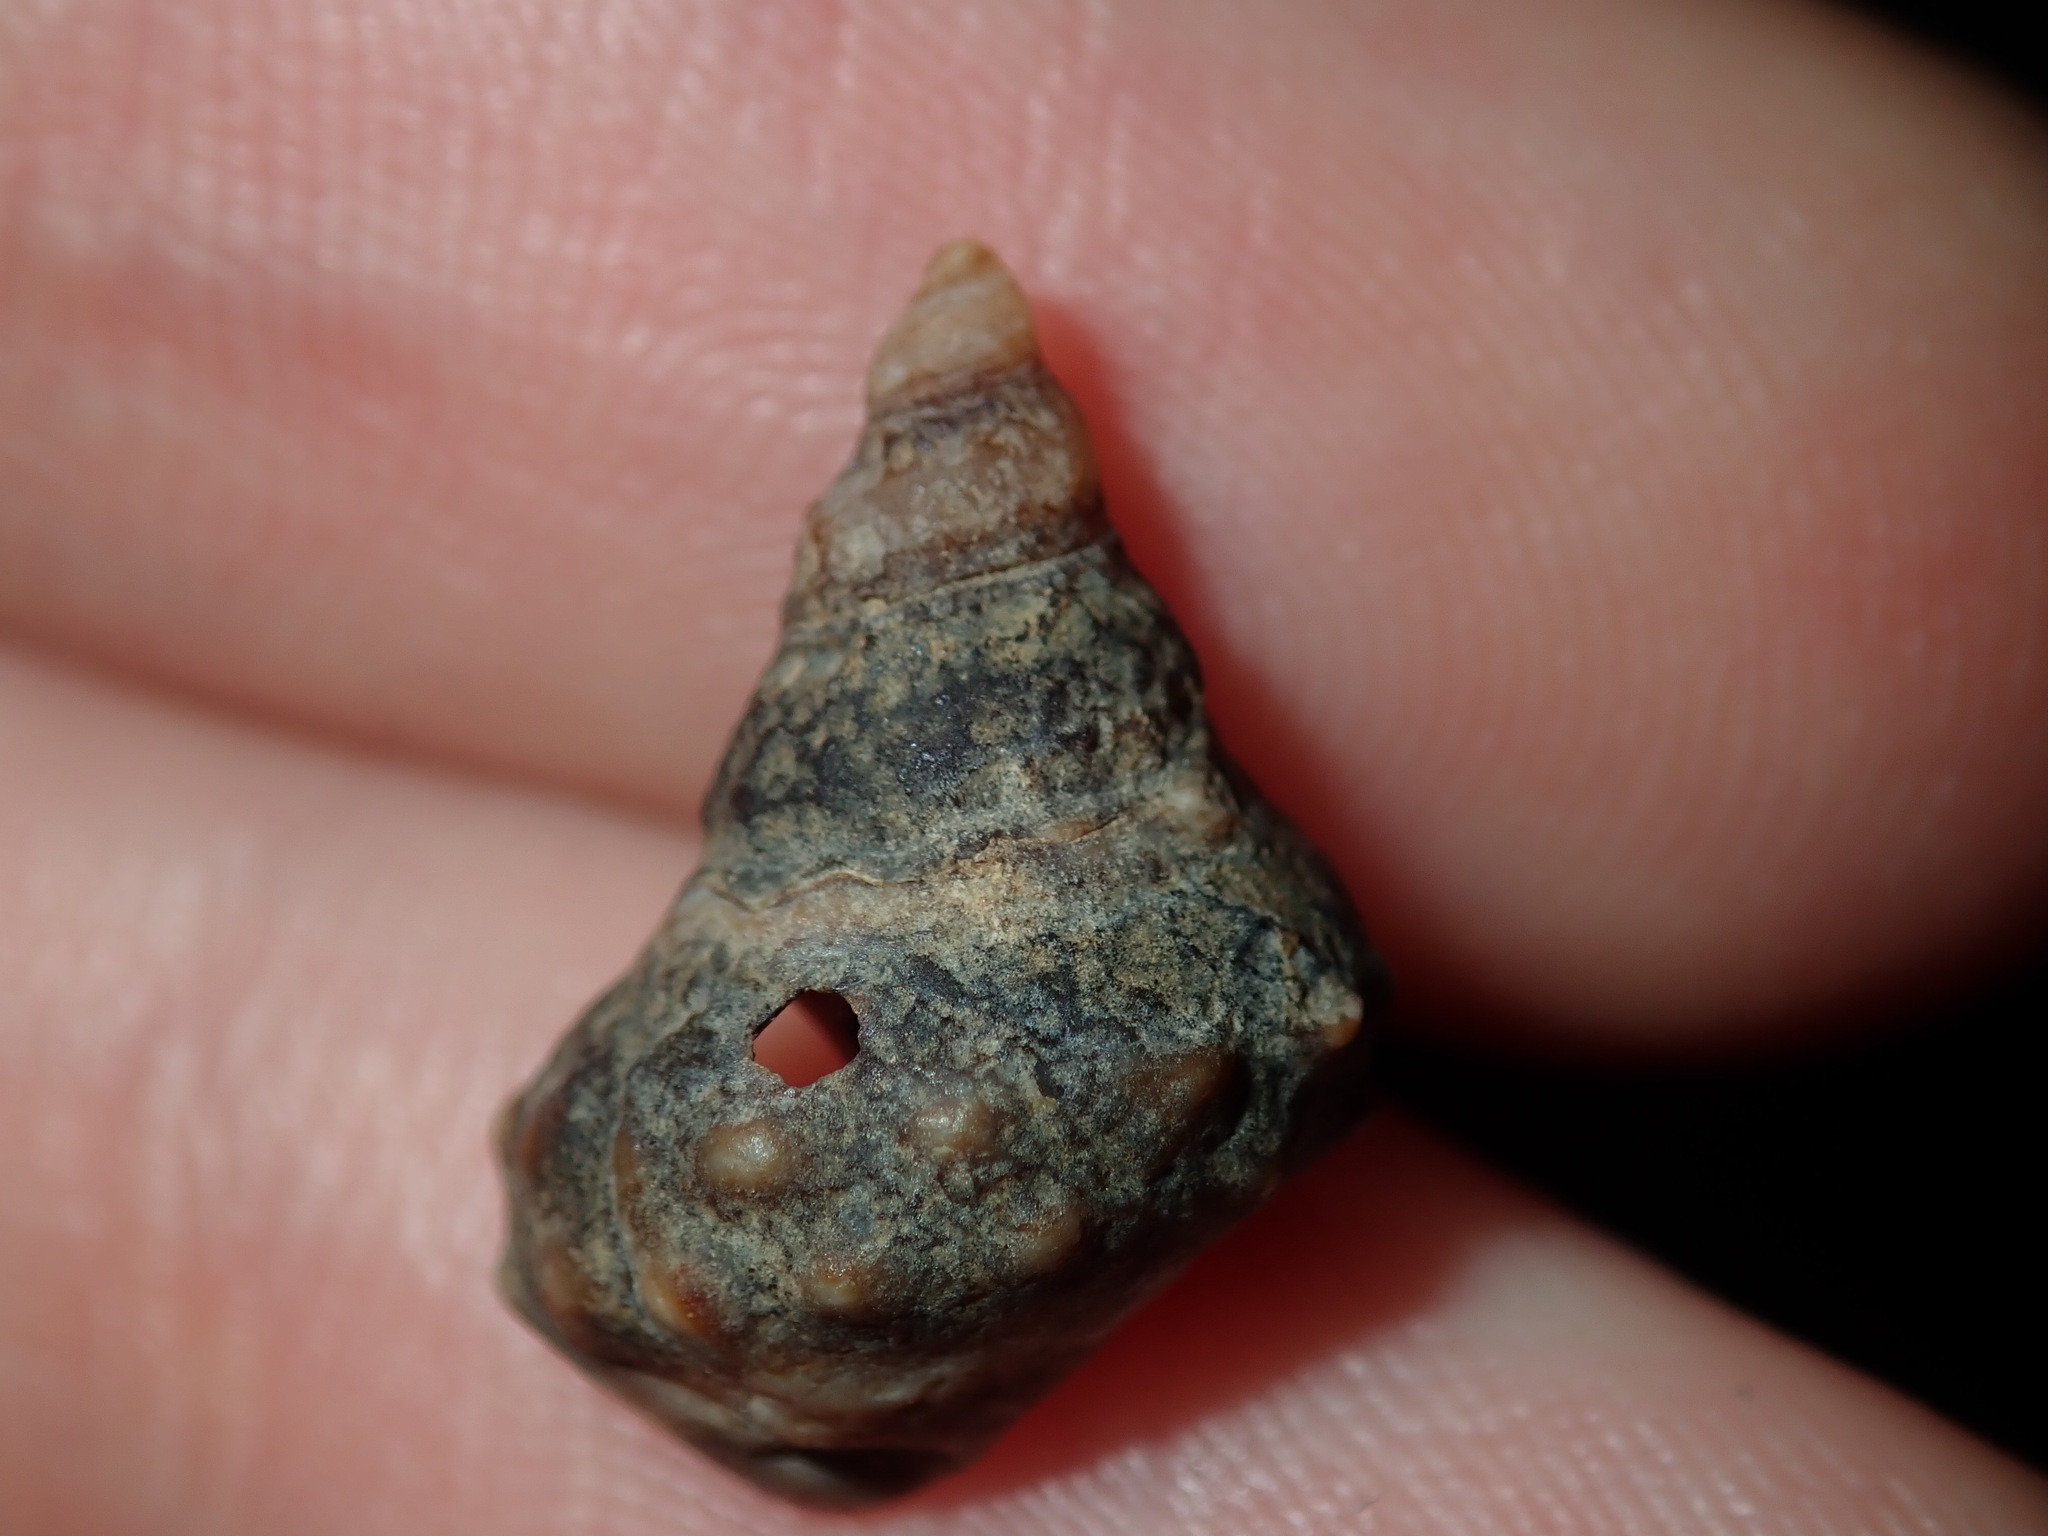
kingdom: Animalia
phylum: Mollusca
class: Gastropoda
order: Littorinimorpha
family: Littorinidae
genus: Nodilittorina
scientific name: Nodilittorina pyramidalis
